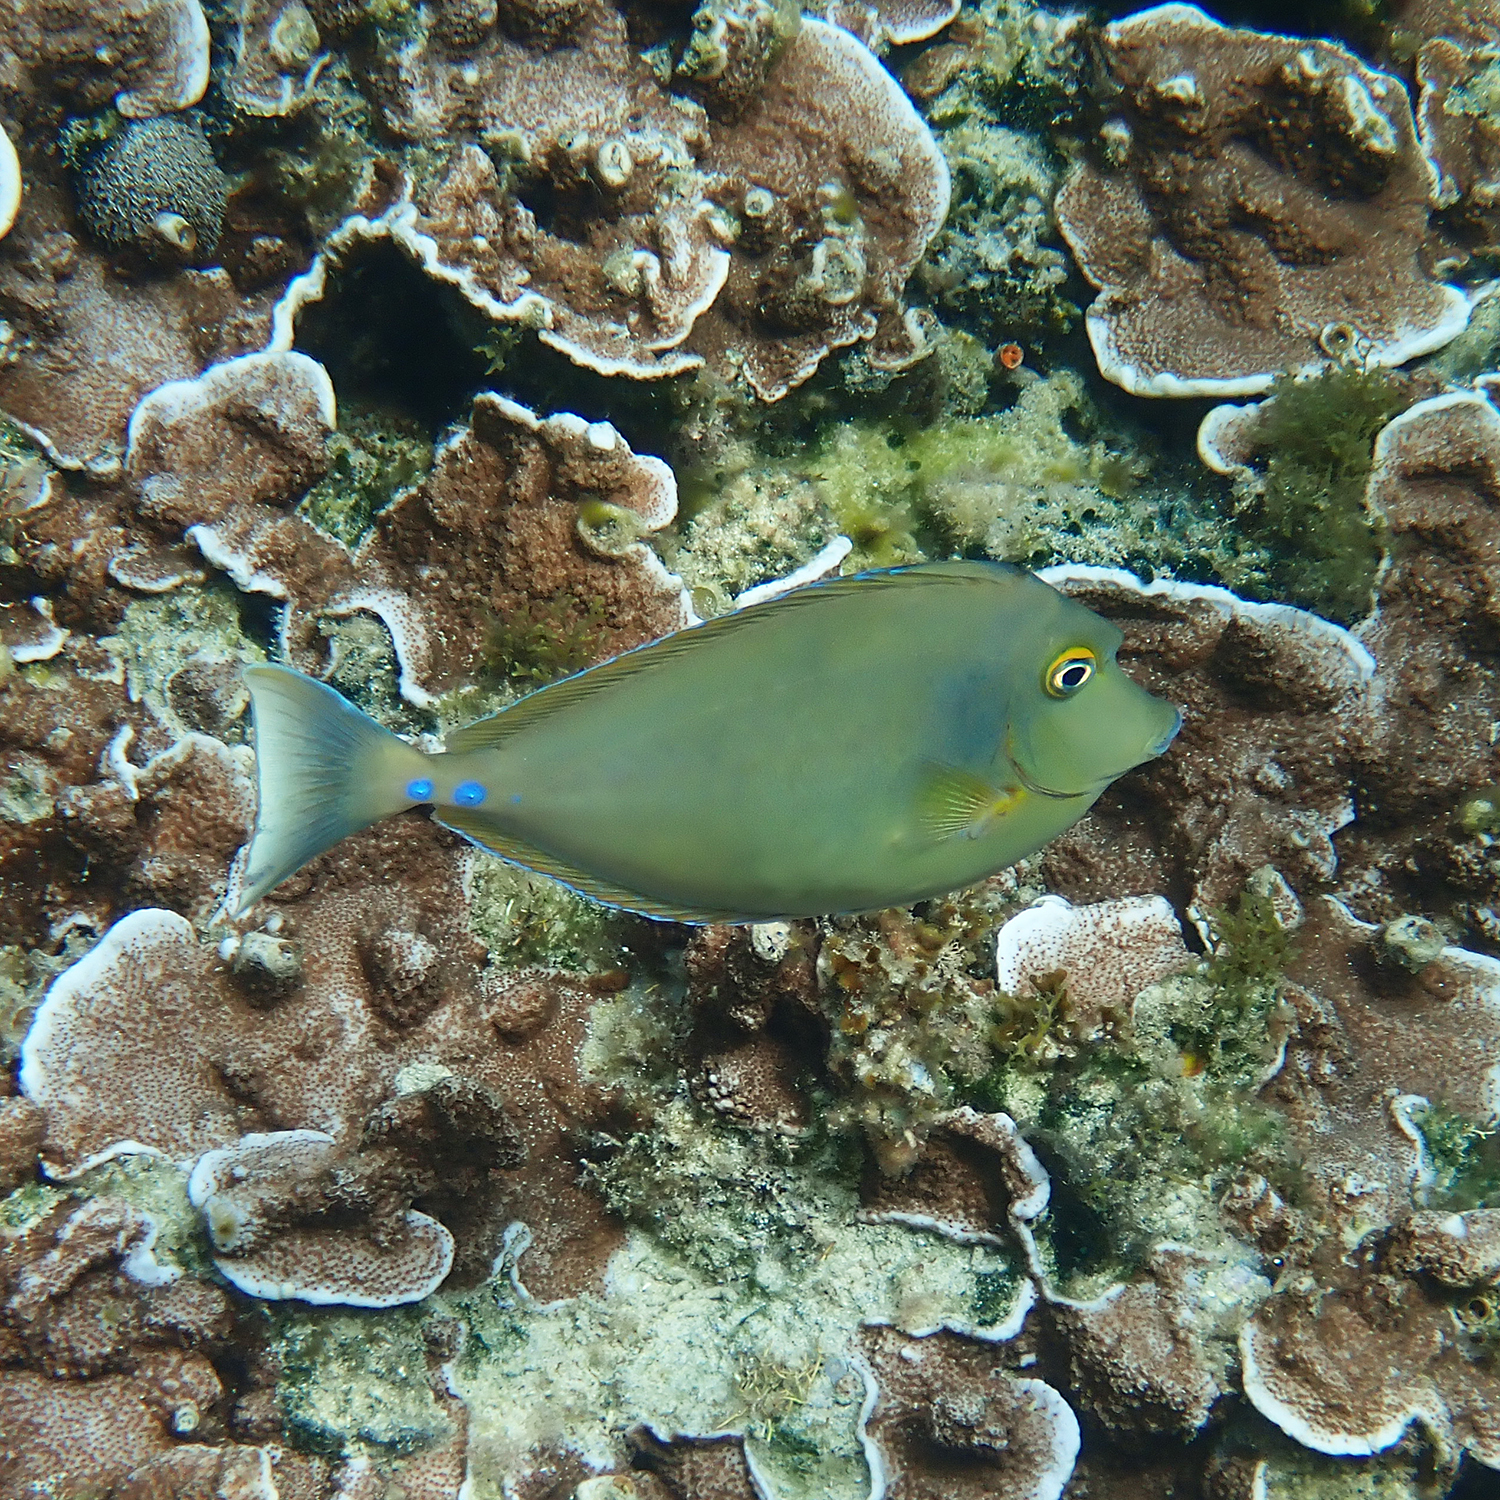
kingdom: Animalia
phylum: Chordata
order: Perciformes
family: Acanthuridae
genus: Naso
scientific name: Naso unicornis
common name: Bluespine unicornfish
